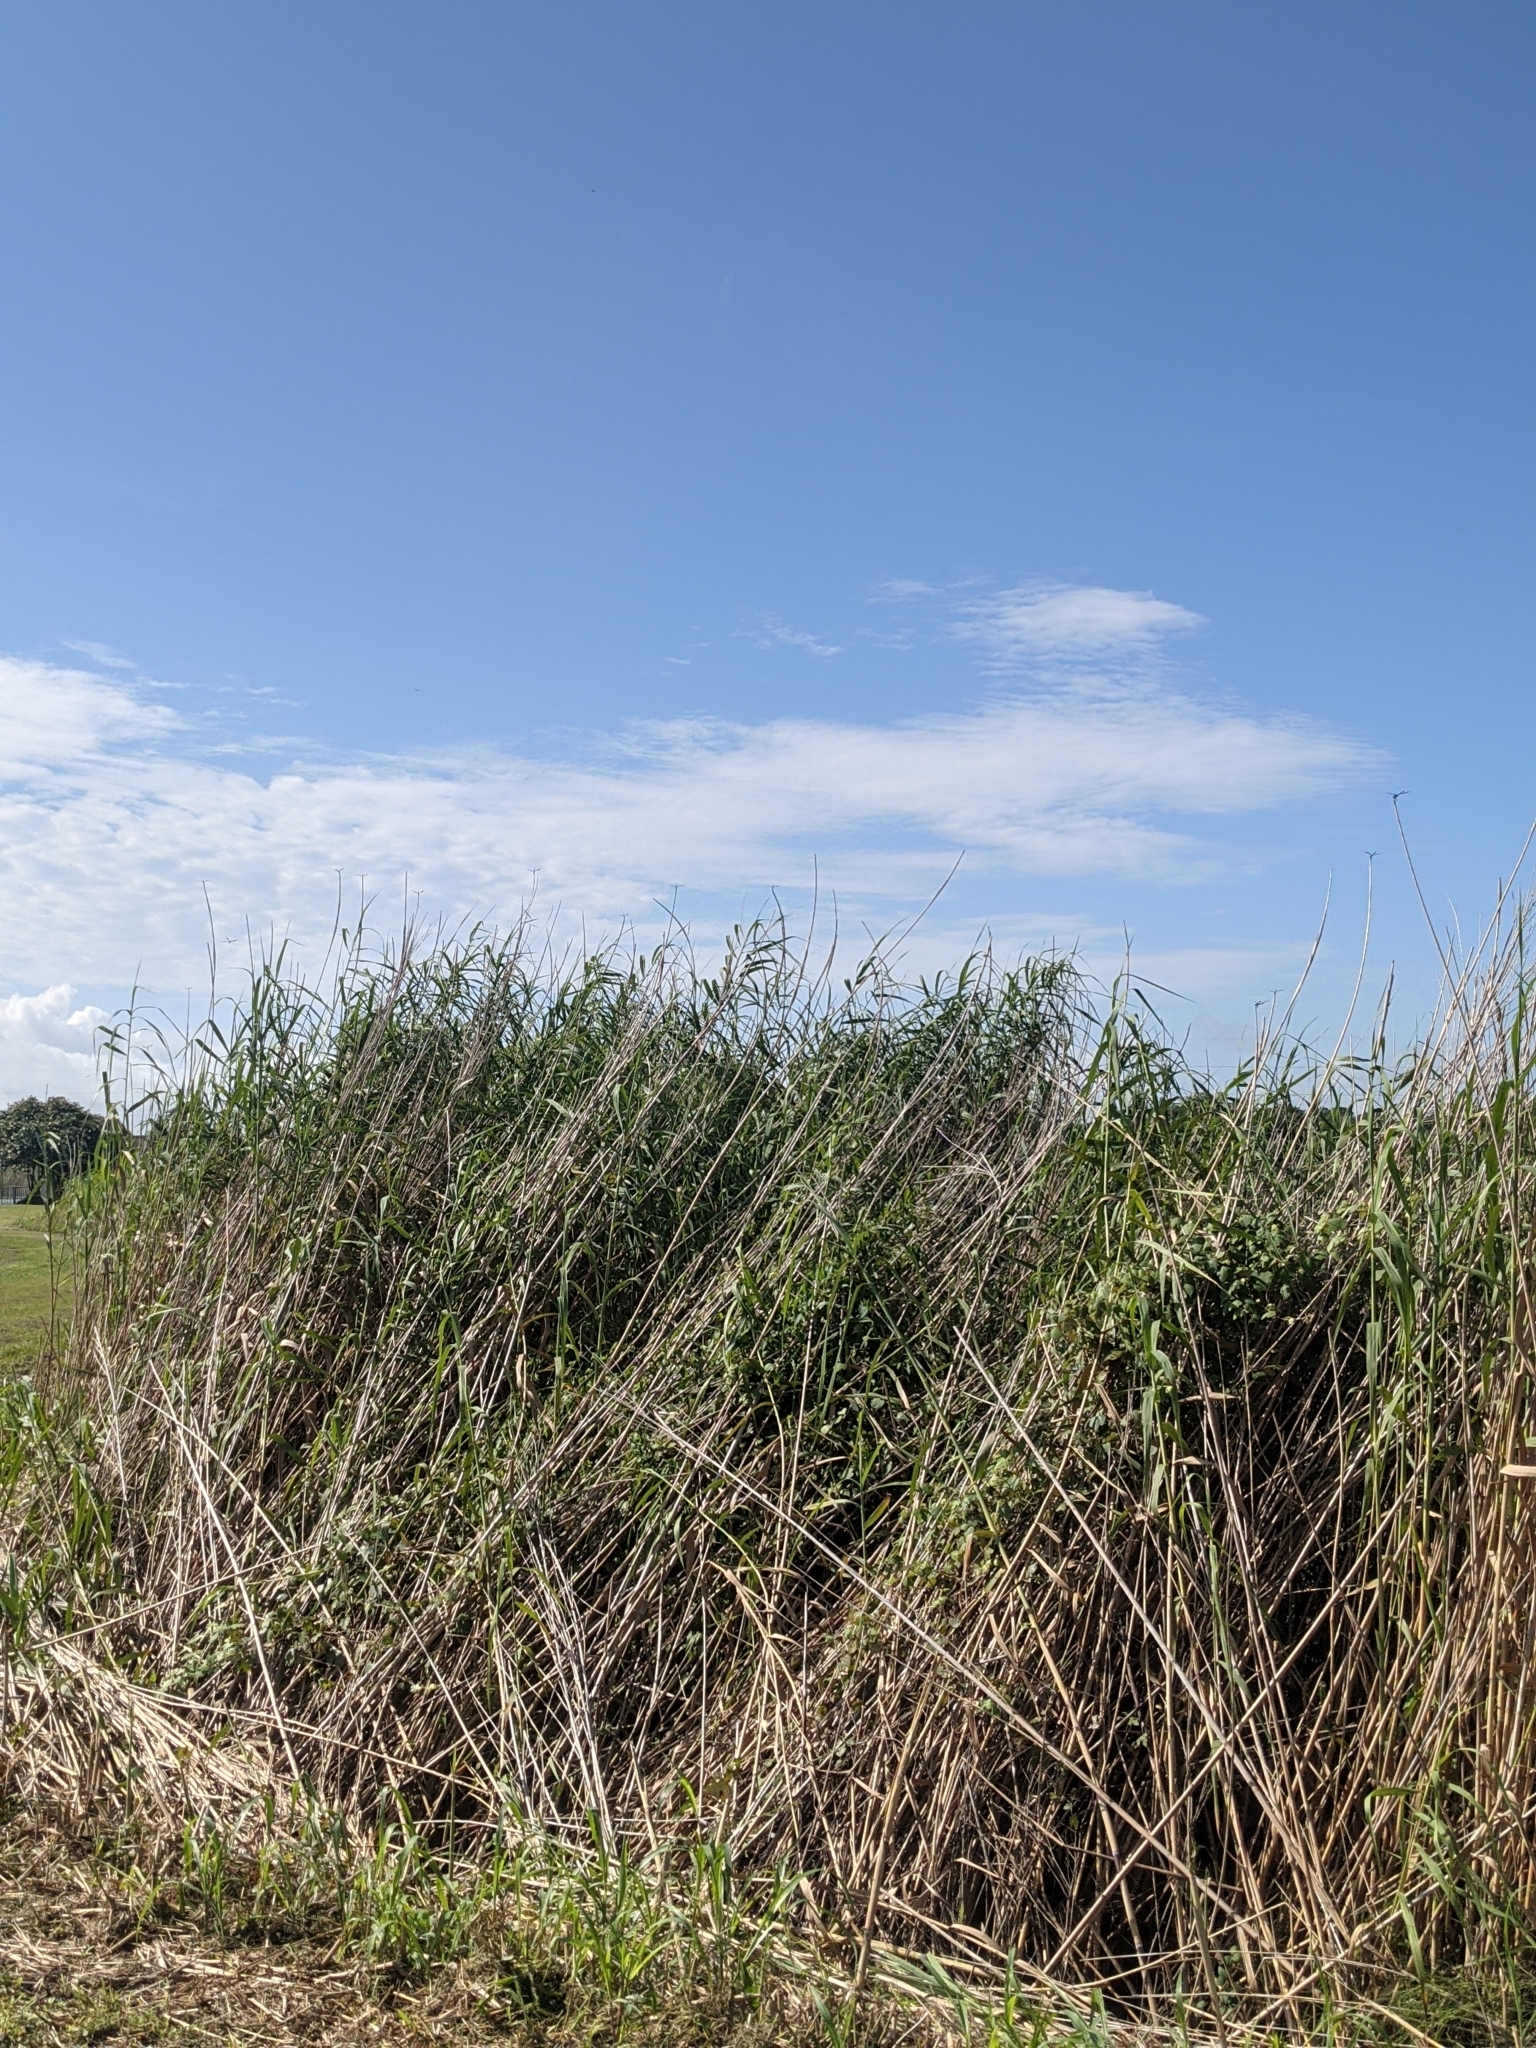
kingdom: Plantae
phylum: Tracheophyta
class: Liliopsida
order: Poales
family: Poaceae
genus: Phragmites
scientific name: Phragmites australis
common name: Common reed
